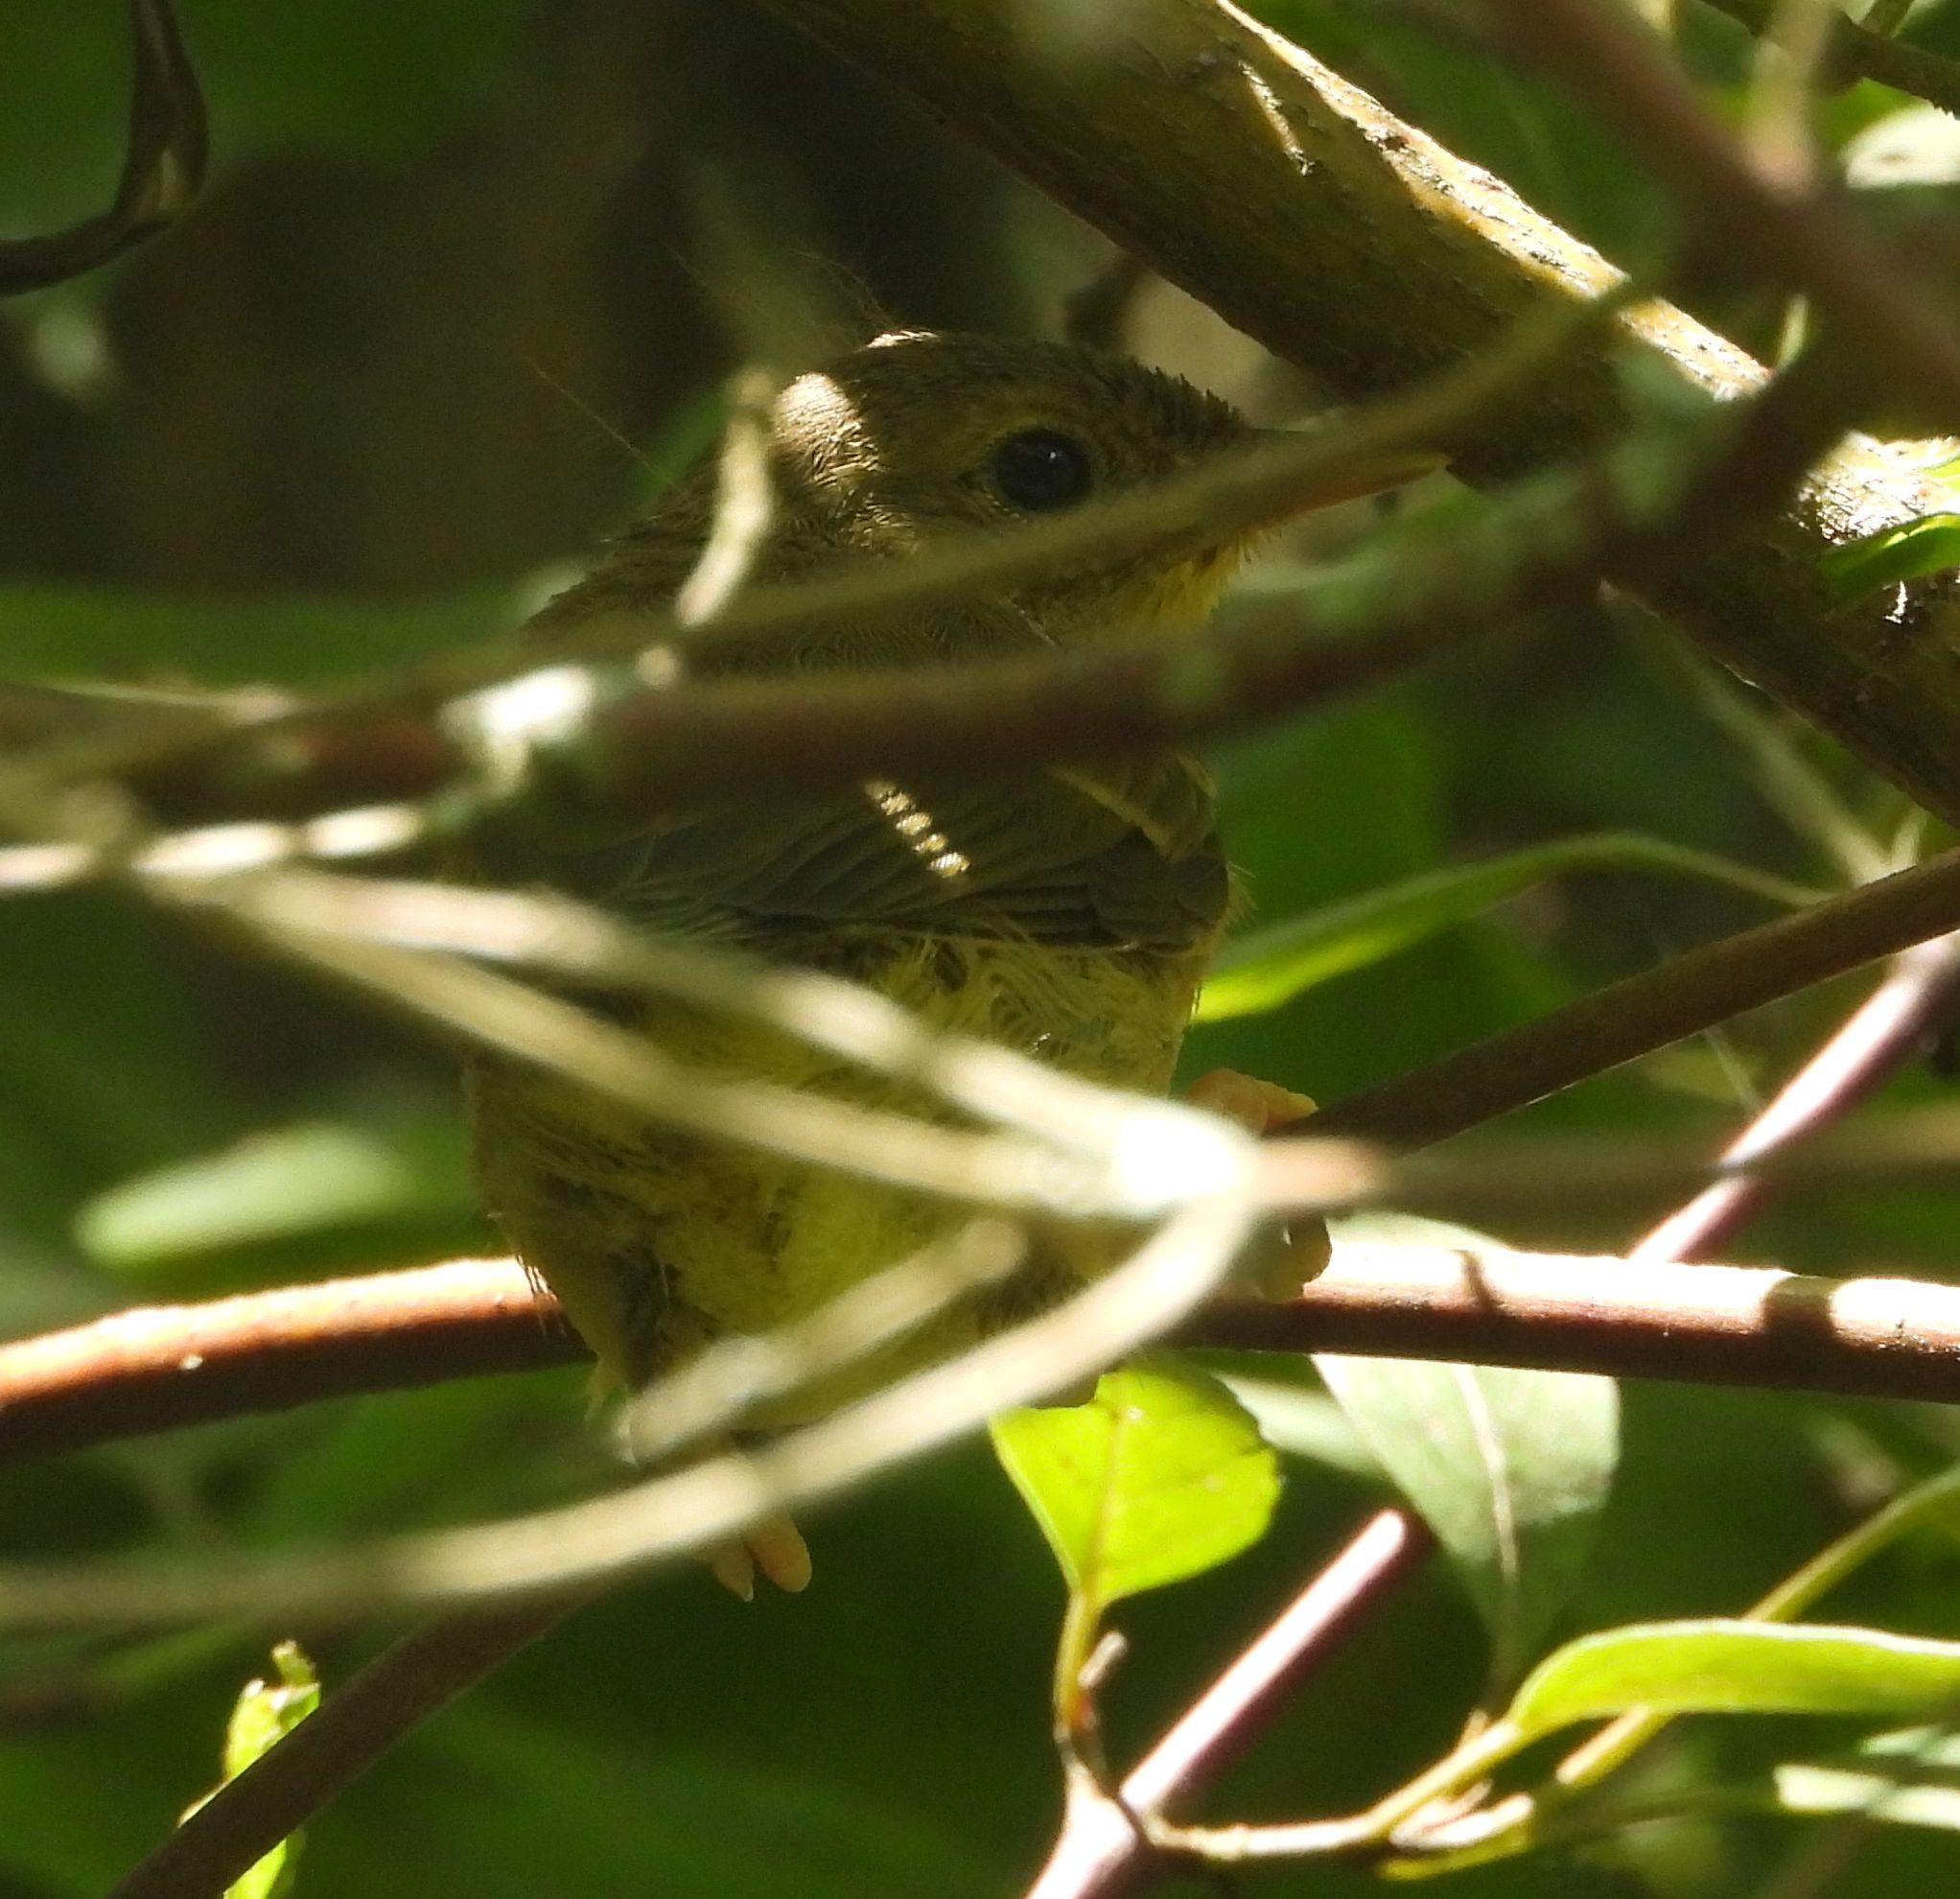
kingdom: Animalia
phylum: Chordata
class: Aves
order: Passeriformes
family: Parulidae
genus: Geothlypis
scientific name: Geothlypis trichas
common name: Common yellowthroat
